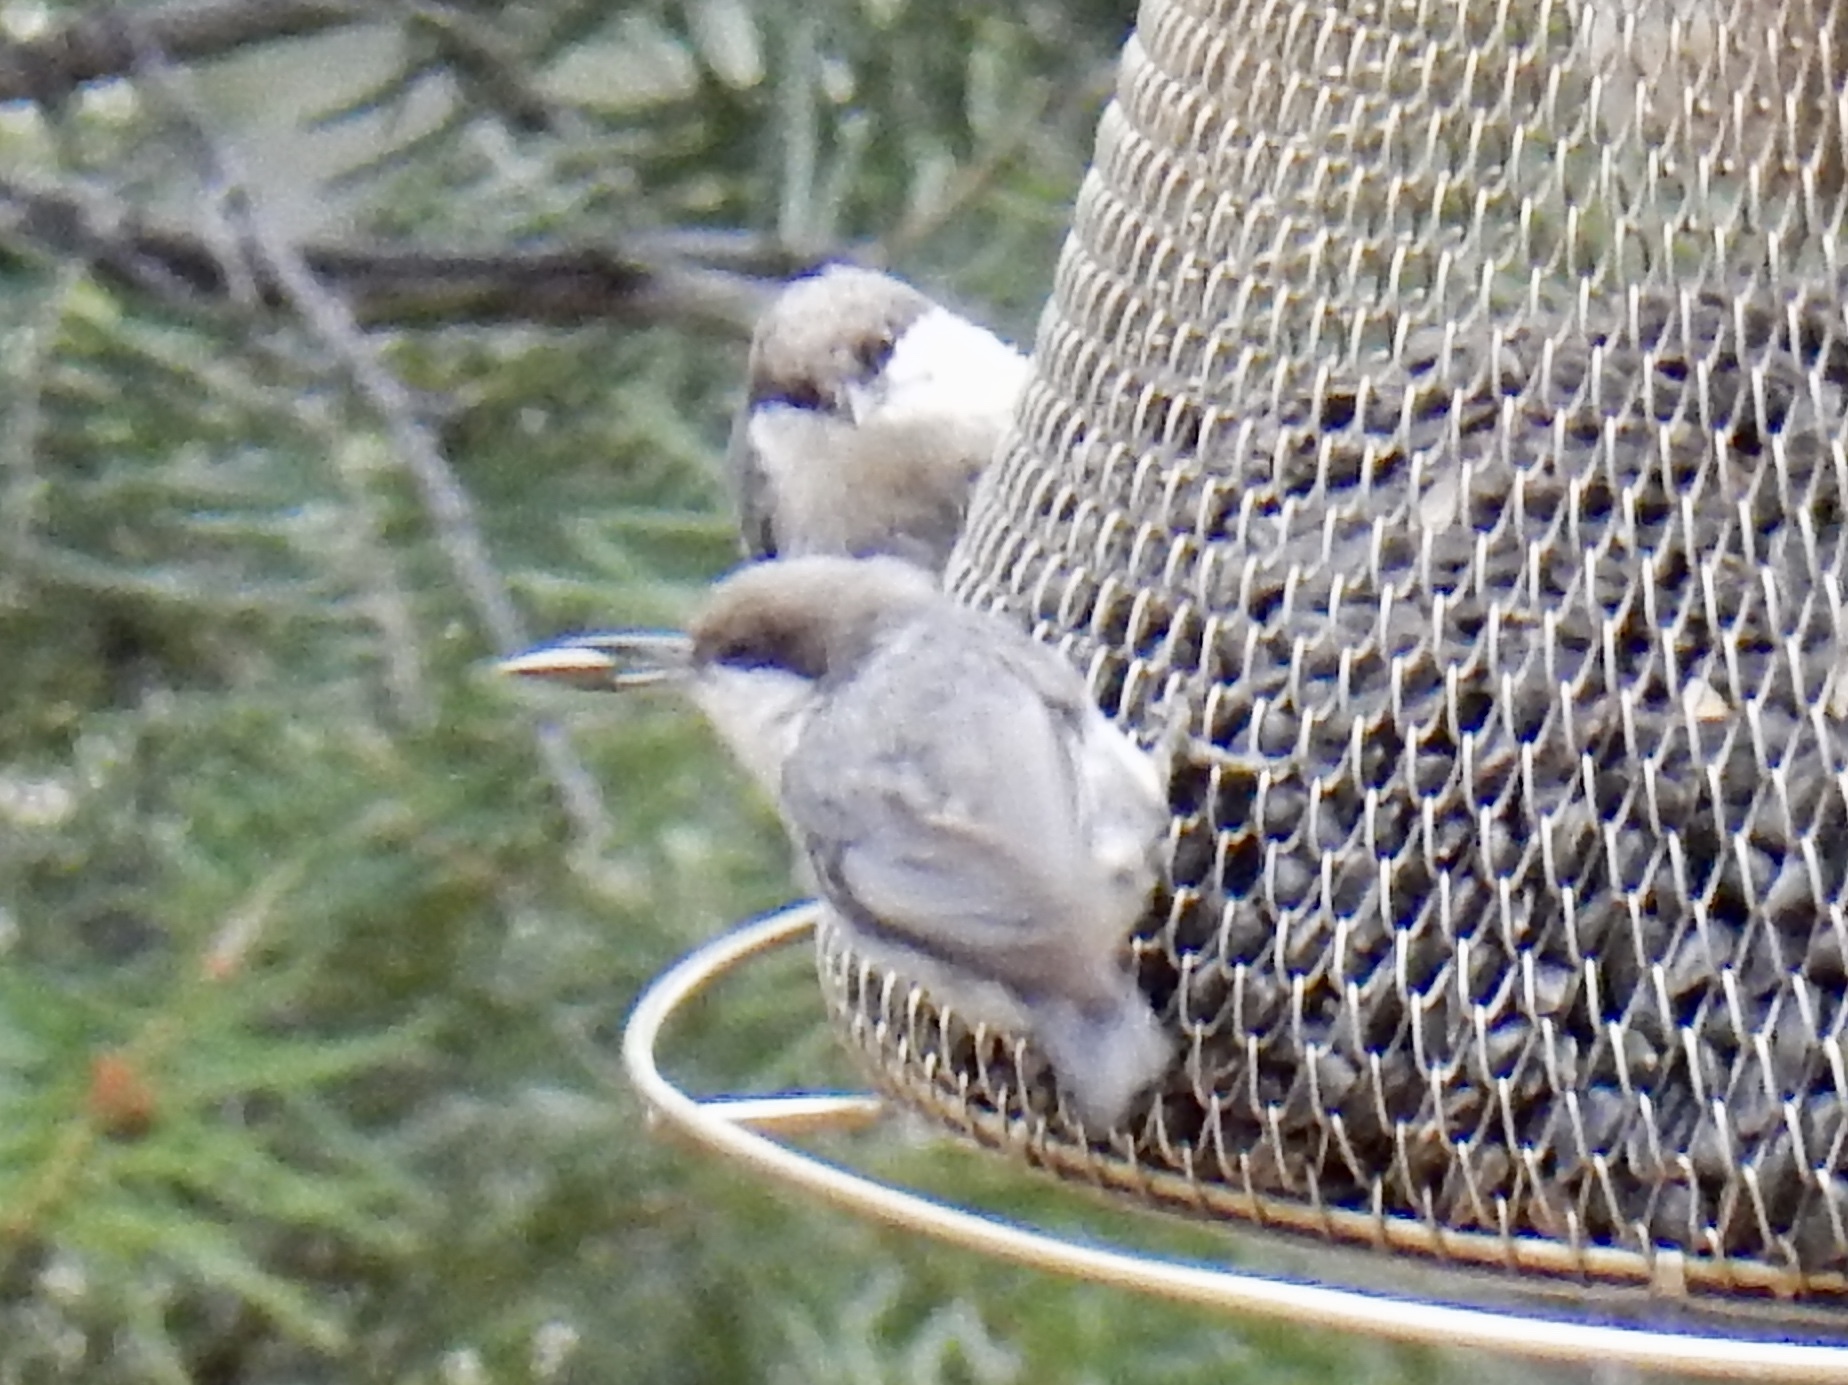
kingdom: Animalia
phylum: Chordata
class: Aves
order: Passeriformes
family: Sittidae
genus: Sitta
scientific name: Sitta pygmaea
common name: Pygmy nuthatch
